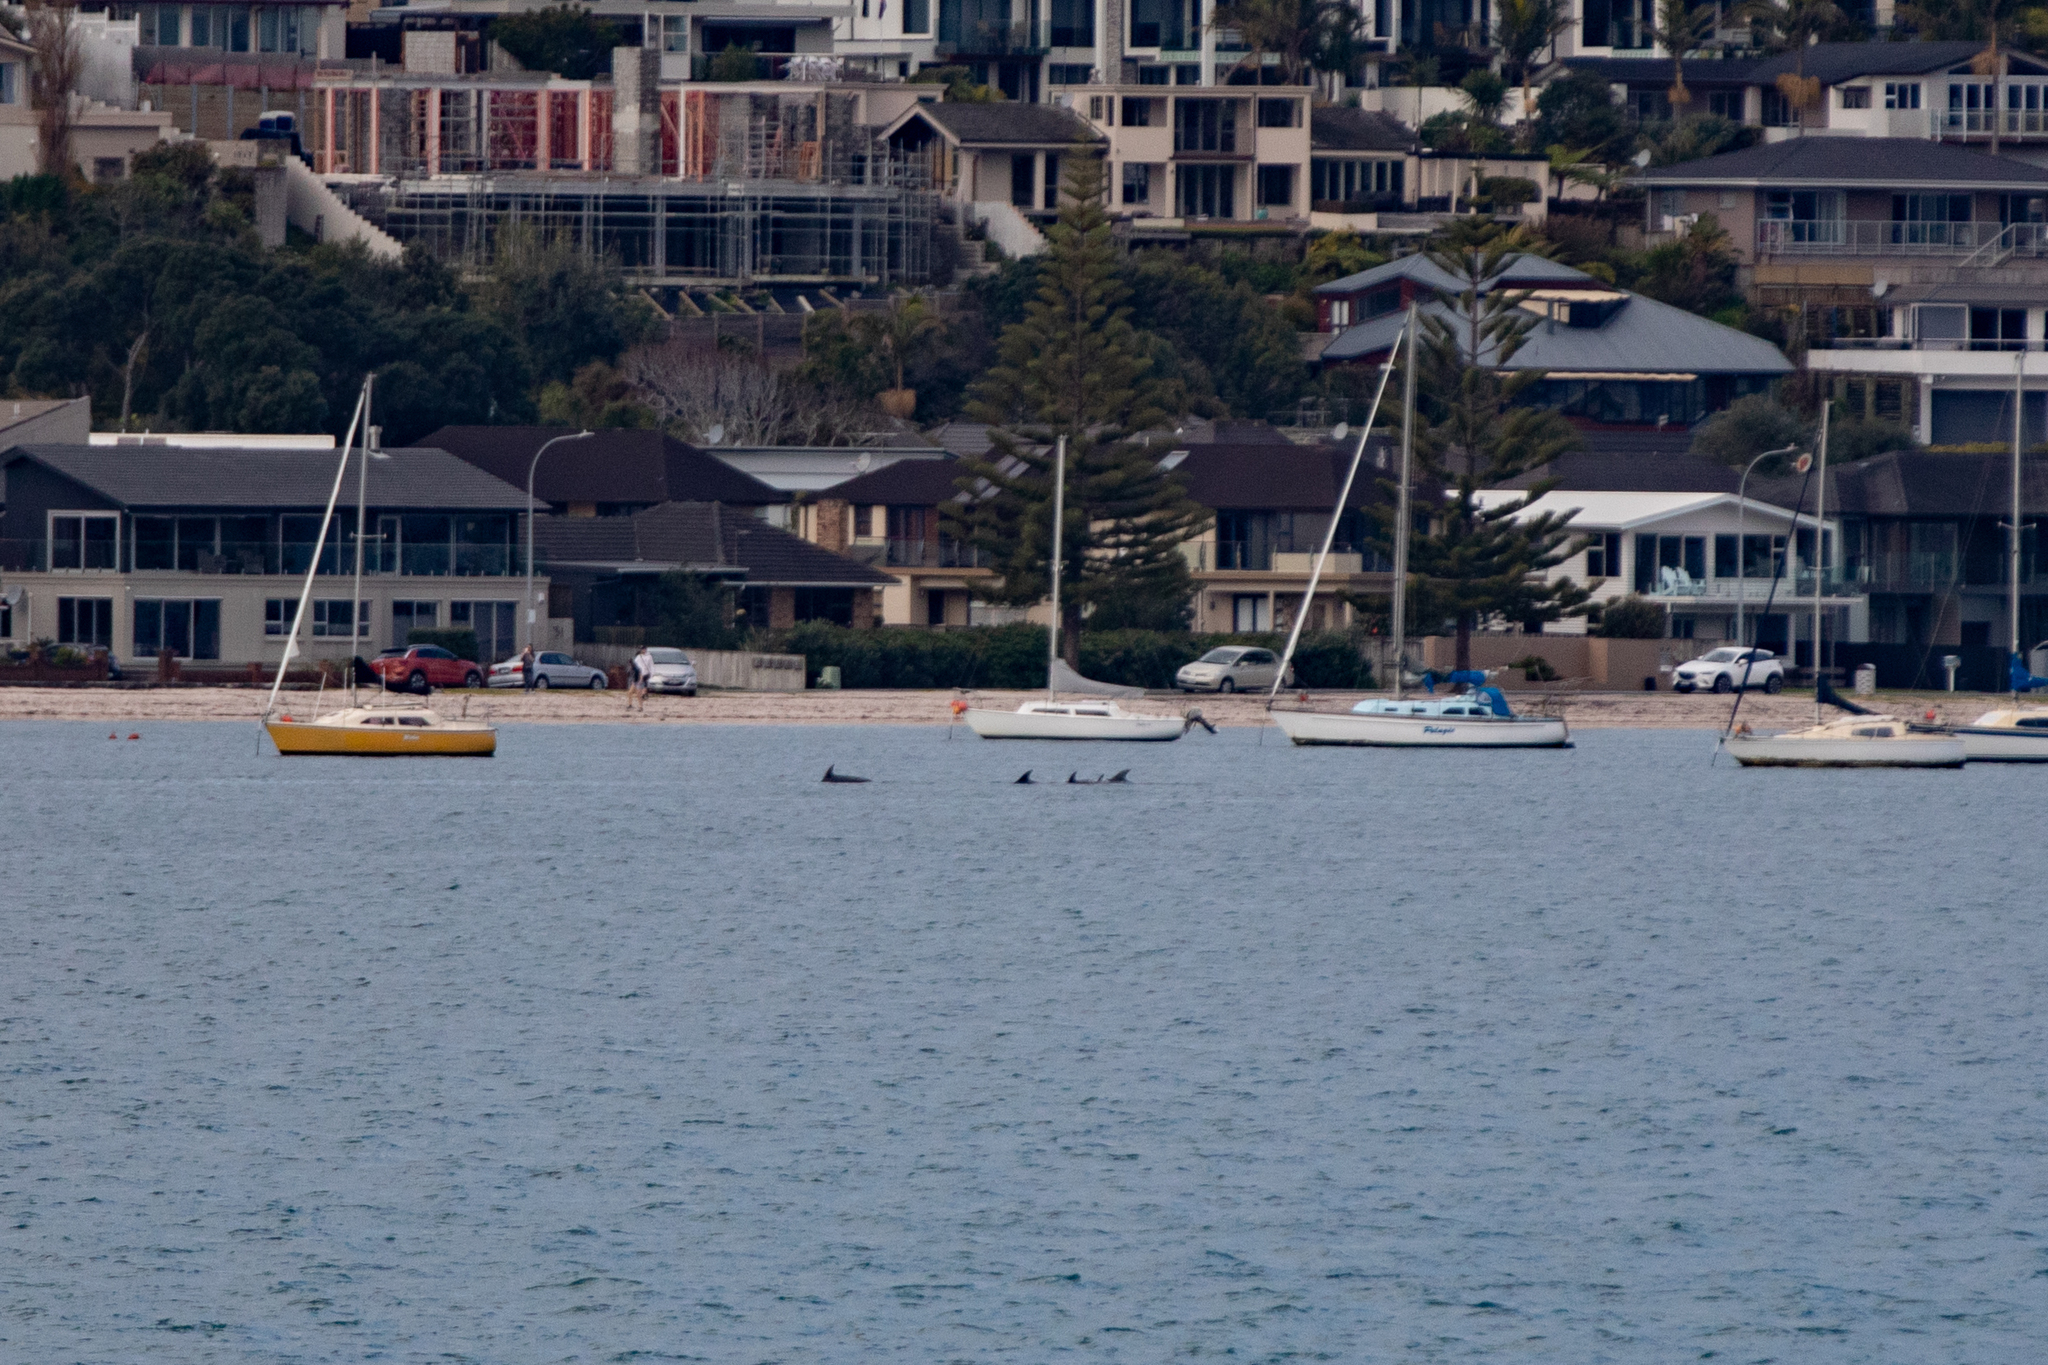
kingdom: Animalia
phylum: Chordata
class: Mammalia
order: Cetacea
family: Delphinidae
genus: Tursiops
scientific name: Tursiops truncatus
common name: Bottlenose dolphin
